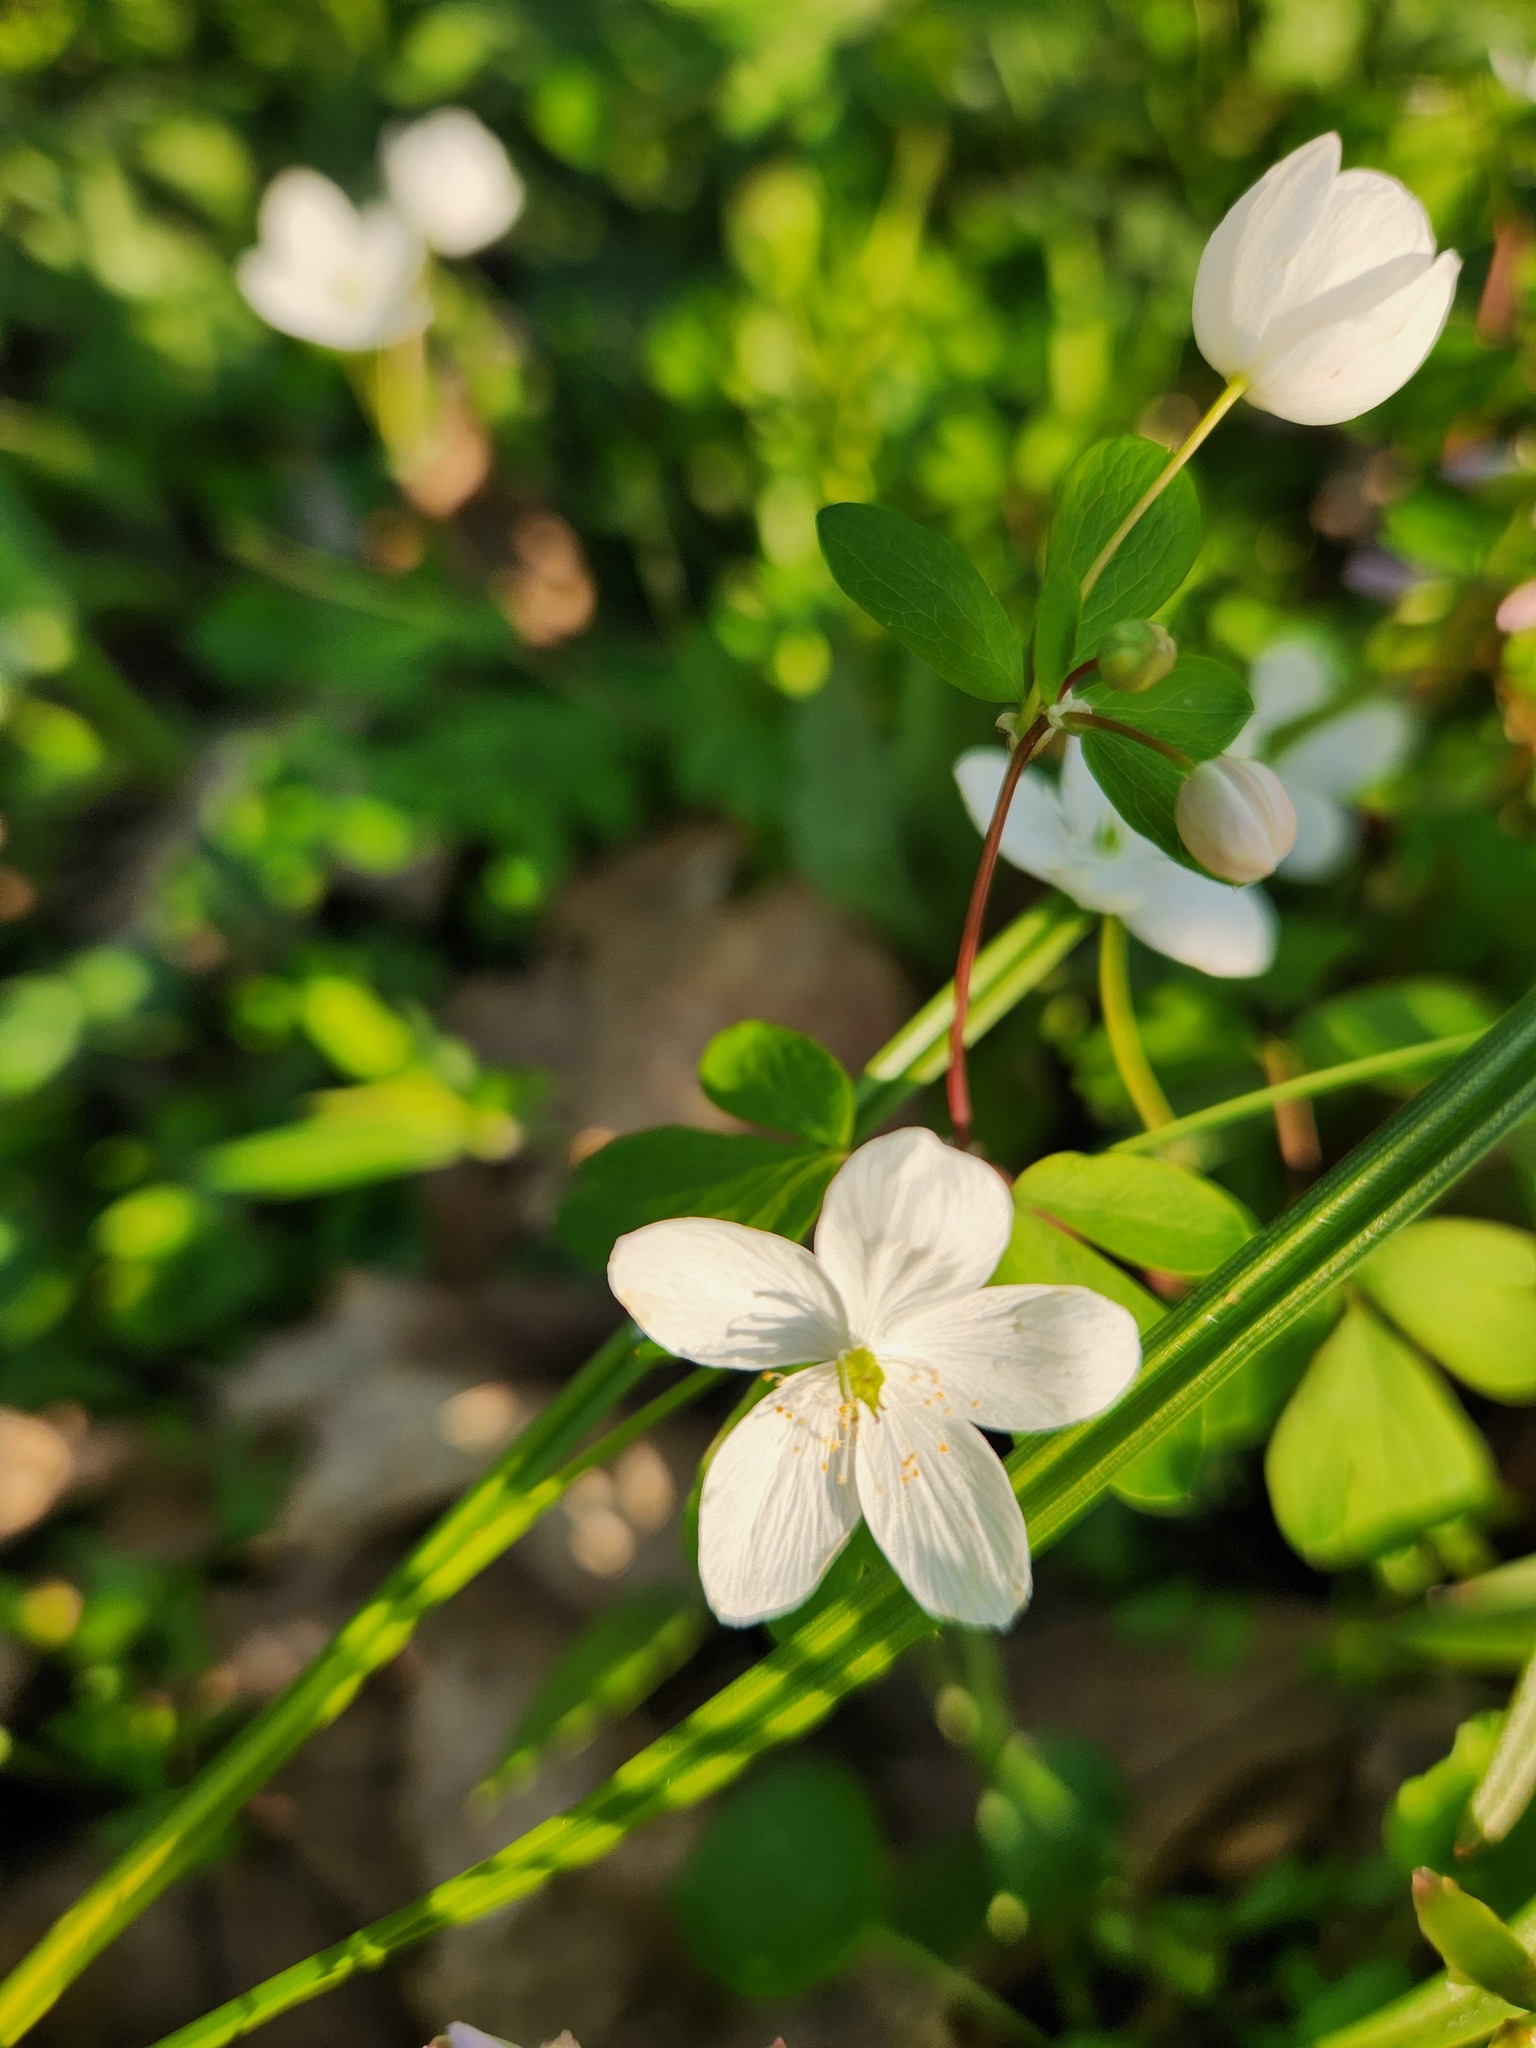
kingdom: Plantae
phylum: Tracheophyta
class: Magnoliopsida
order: Caryophyllales
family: Montiaceae
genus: Claytonia
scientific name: Claytonia virginica
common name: Virginia springbeauty
